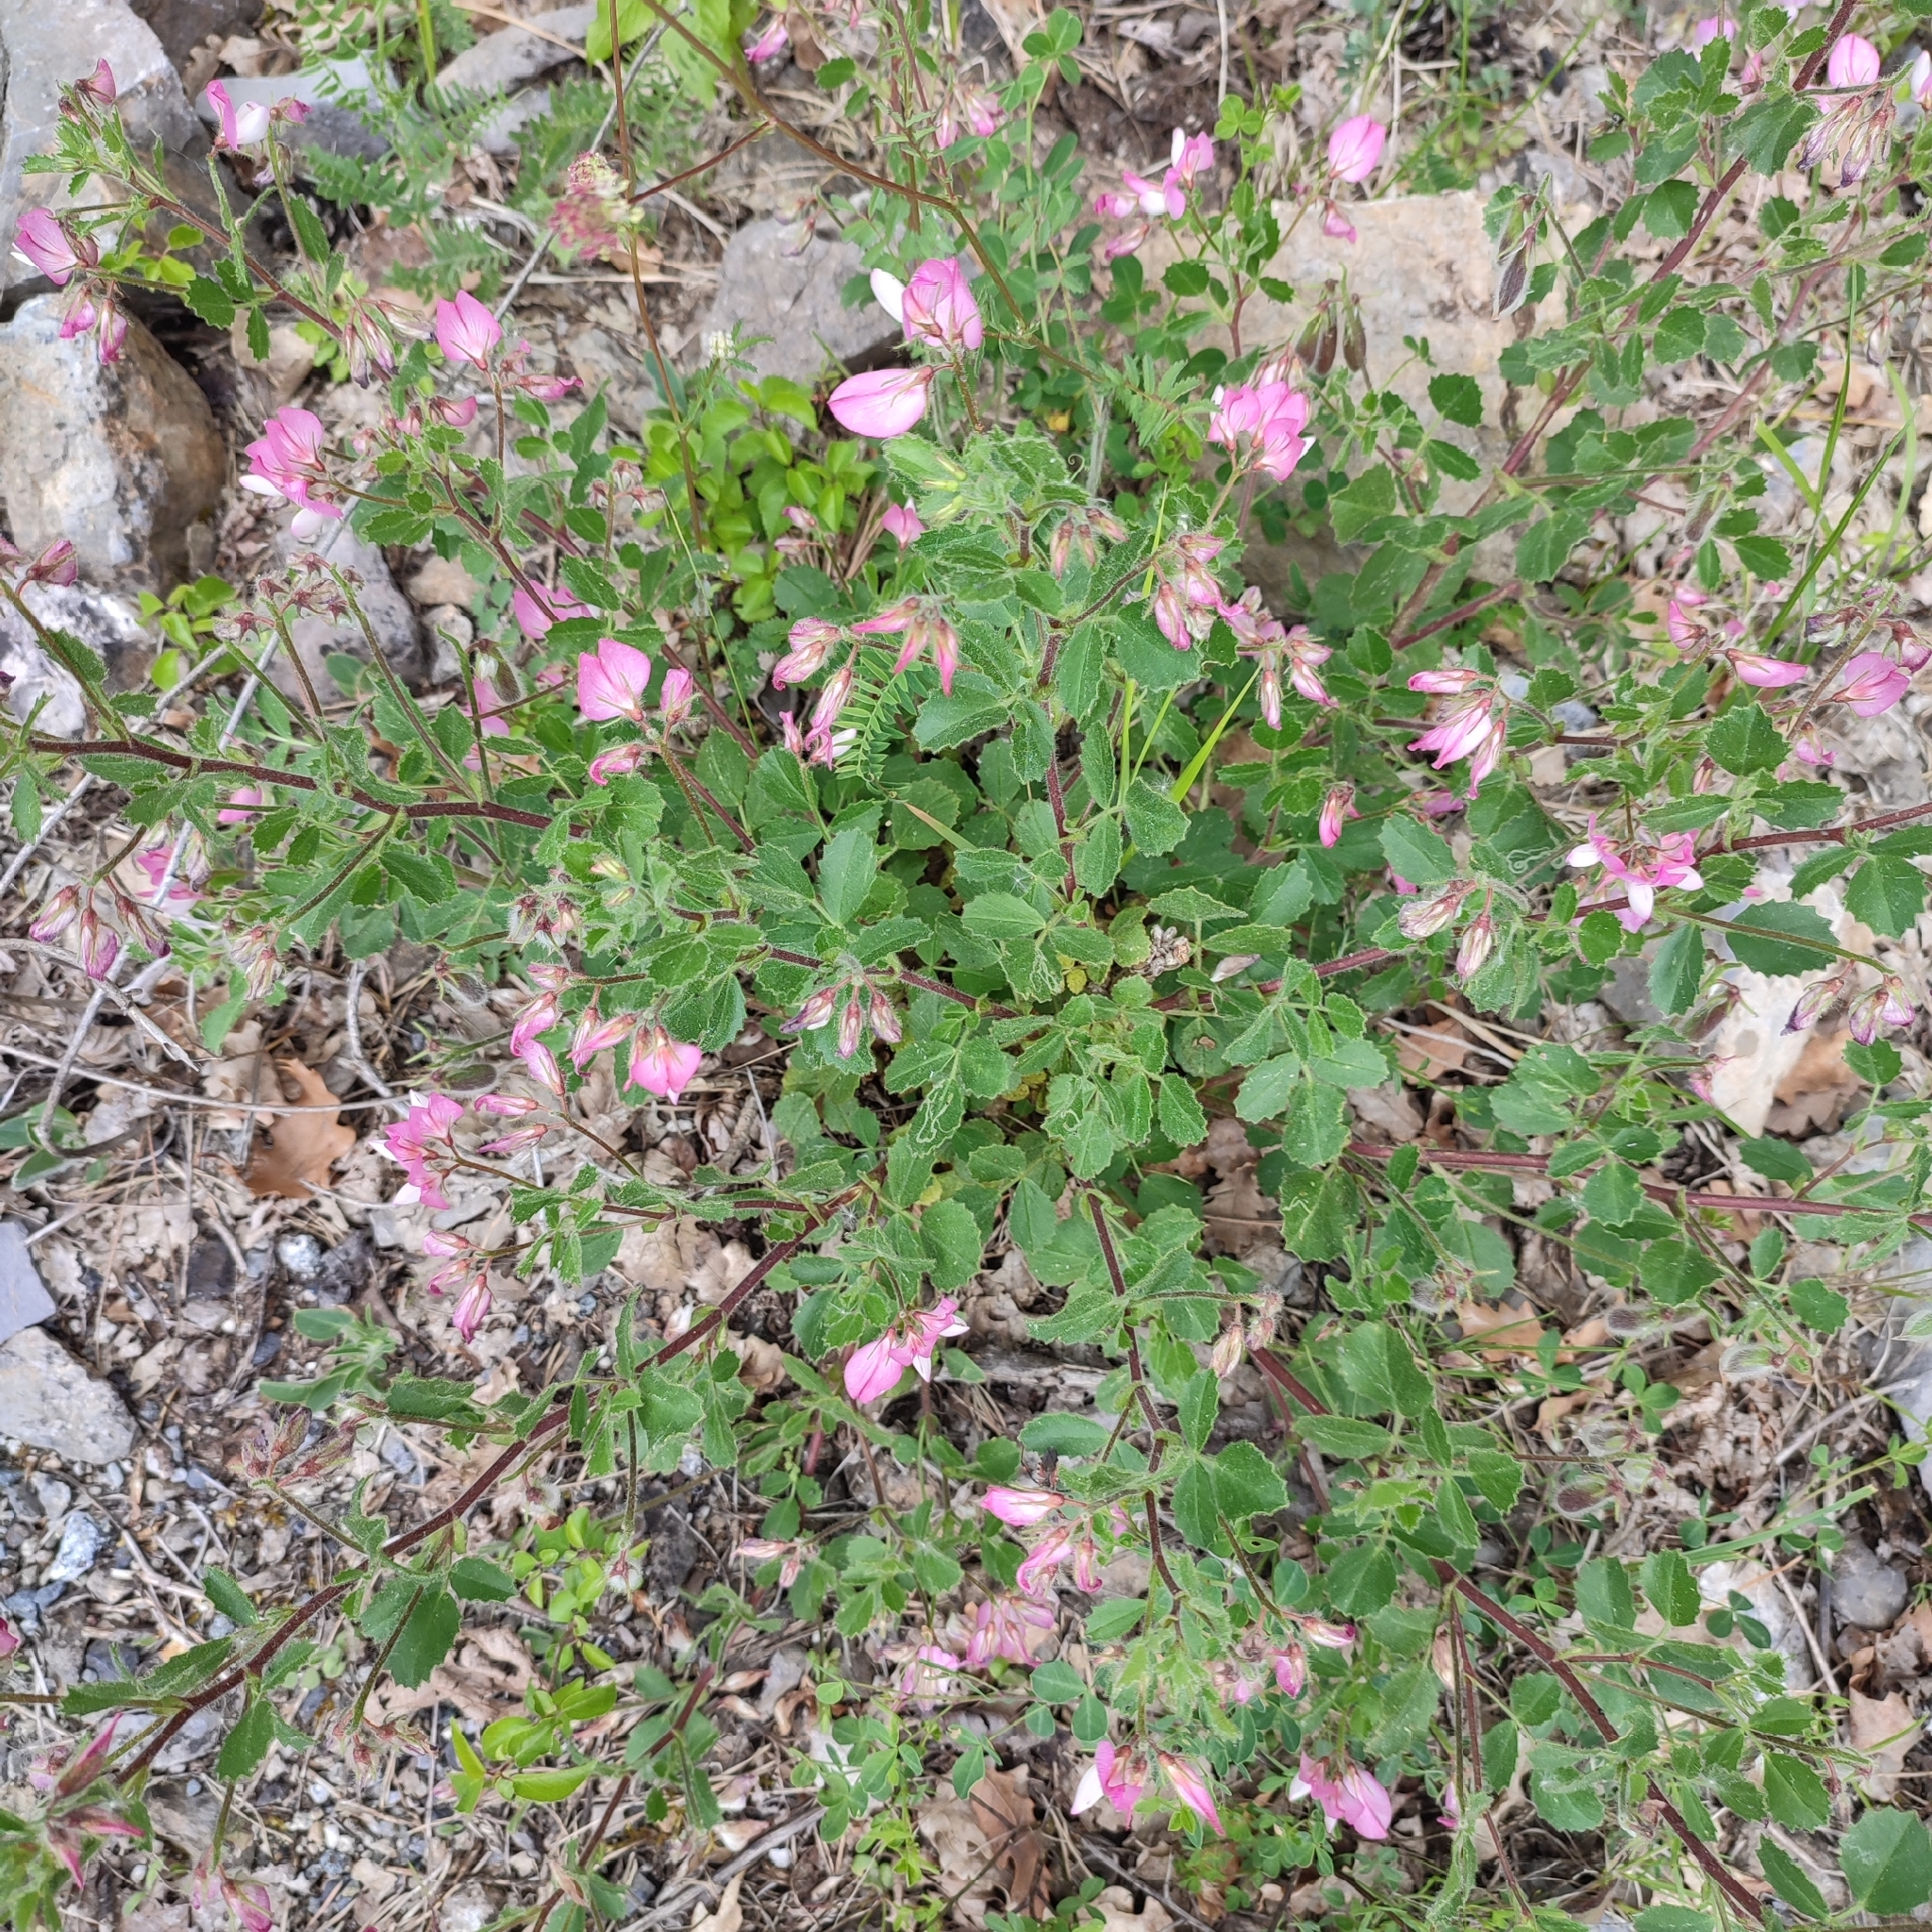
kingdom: Plantae
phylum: Tracheophyta
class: Magnoliopsida
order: Fabales
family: Fabaceae
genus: Ononis
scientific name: Ononis rotundifolia
